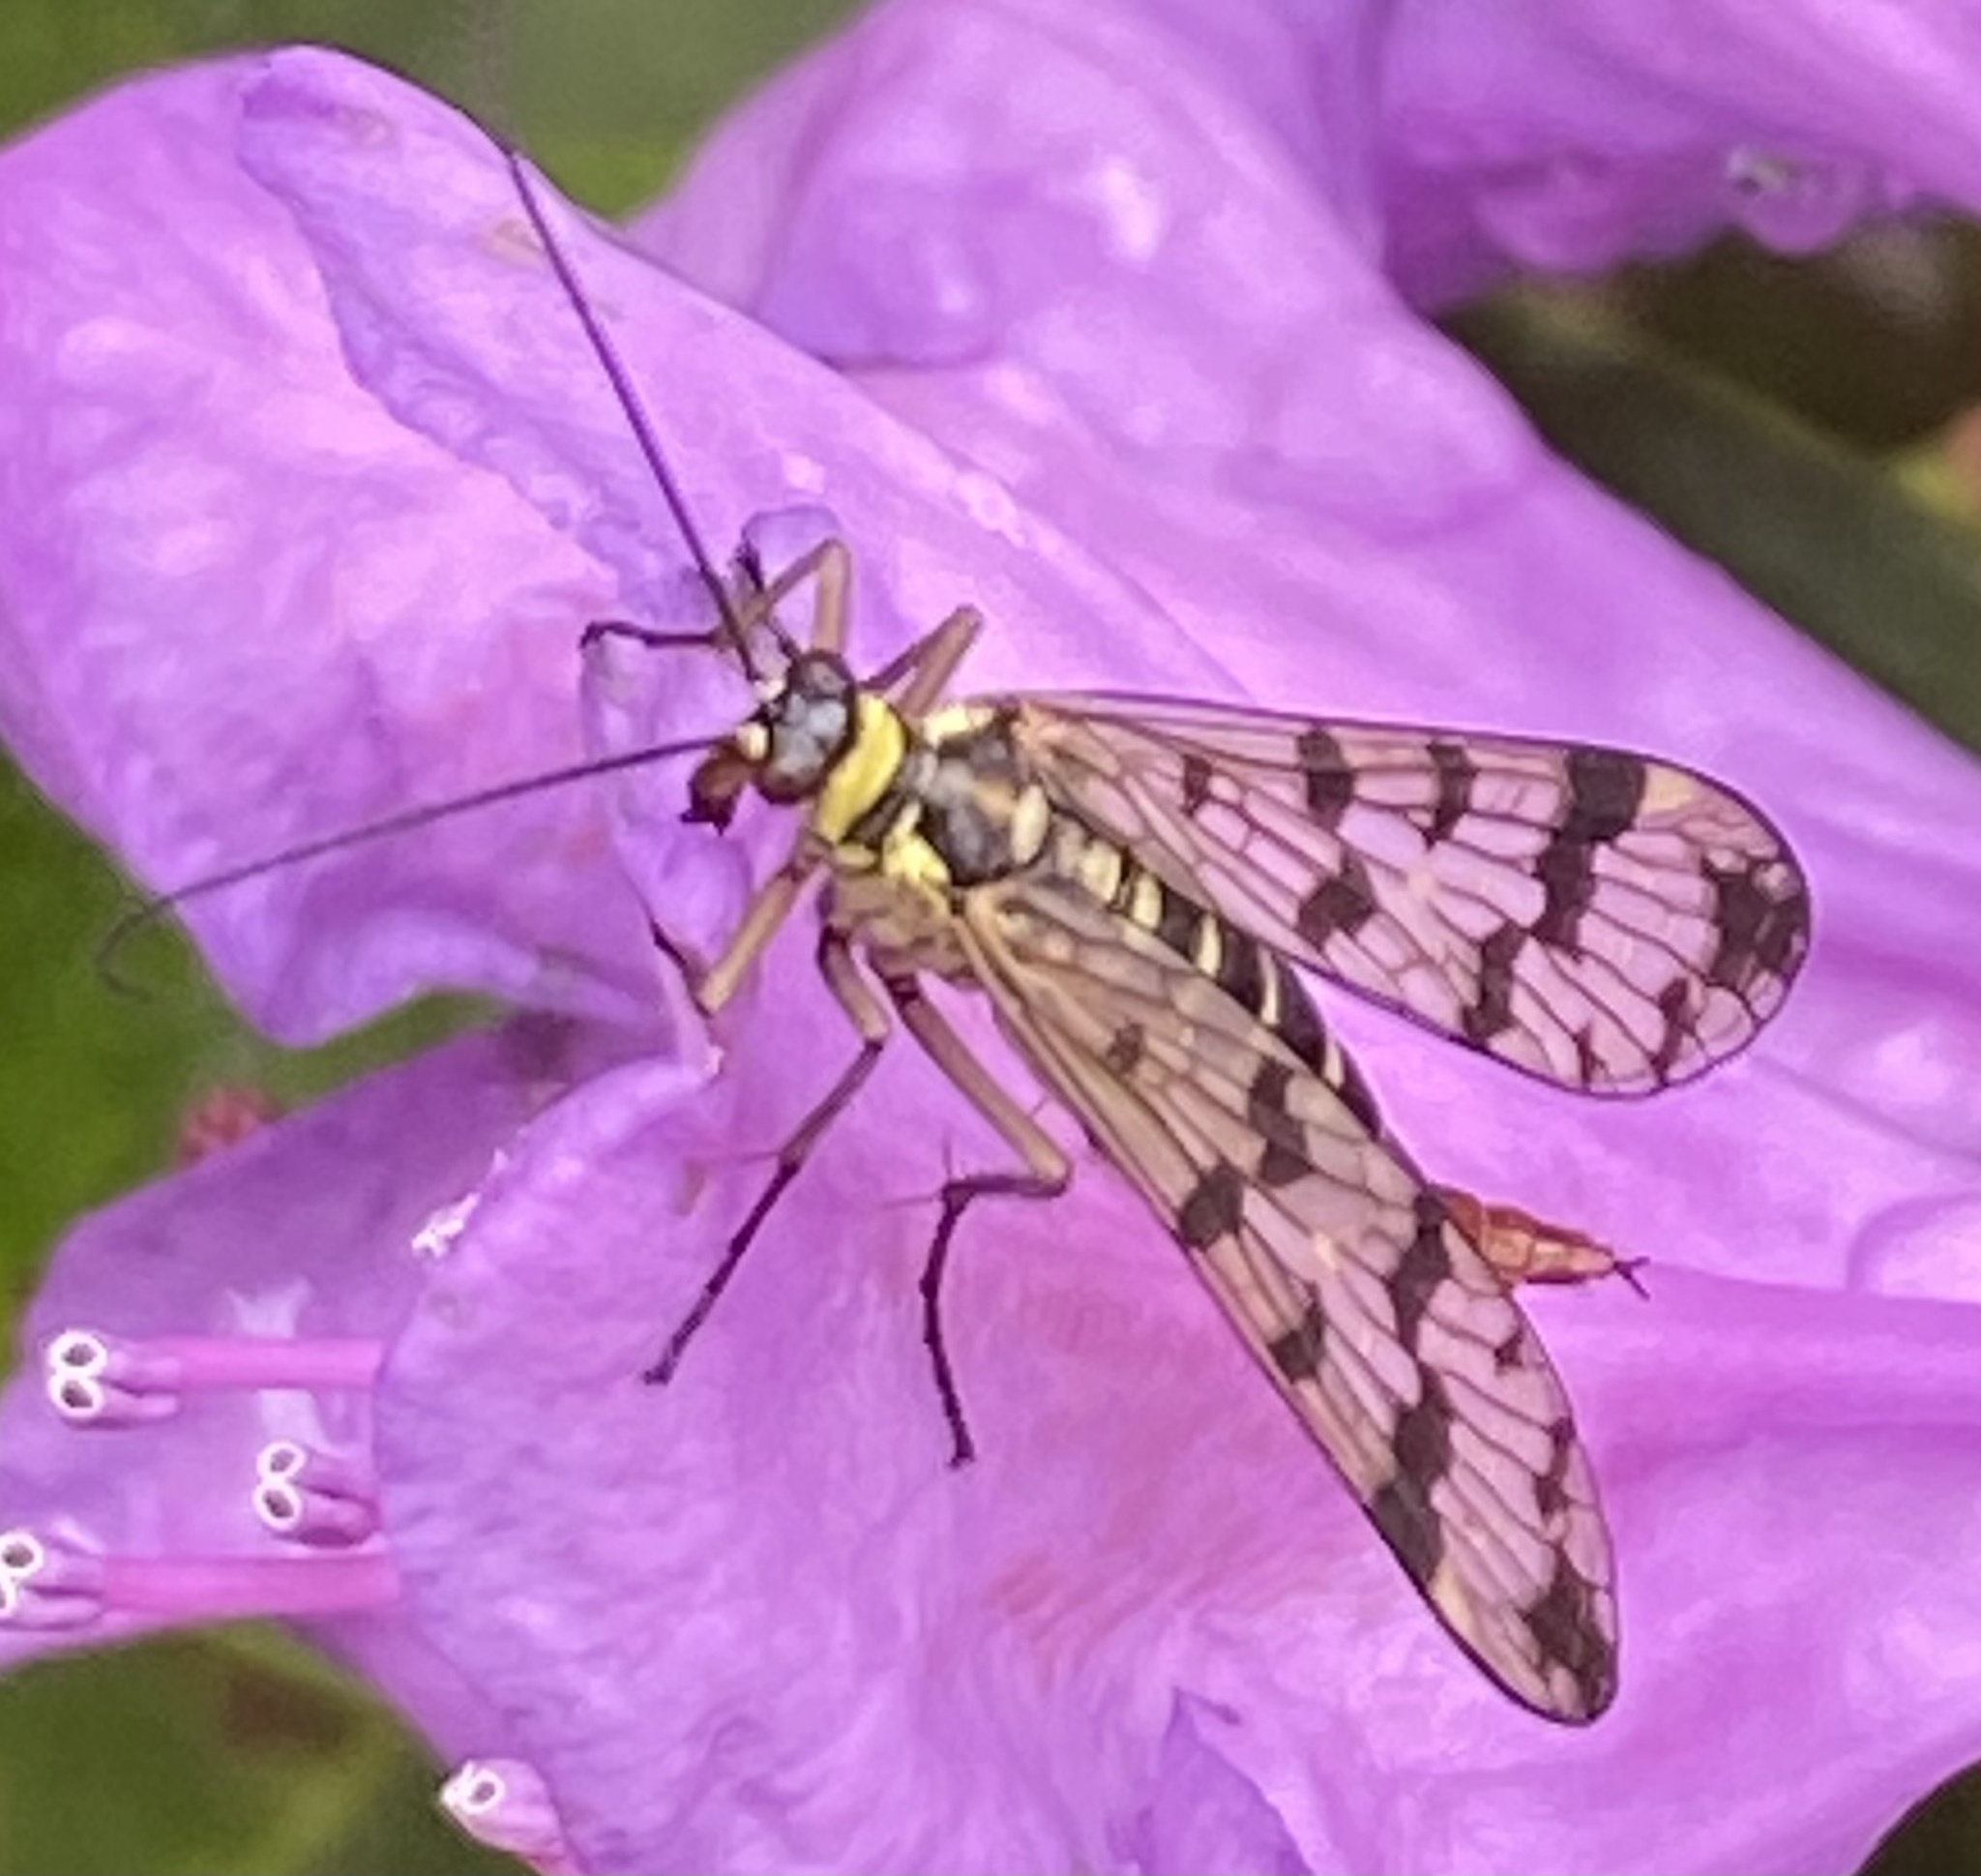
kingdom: Animalia
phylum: Arthropoda
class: Insecta
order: Mecoptera
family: Panorpidae
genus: Panorpa
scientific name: Panorpa communis
